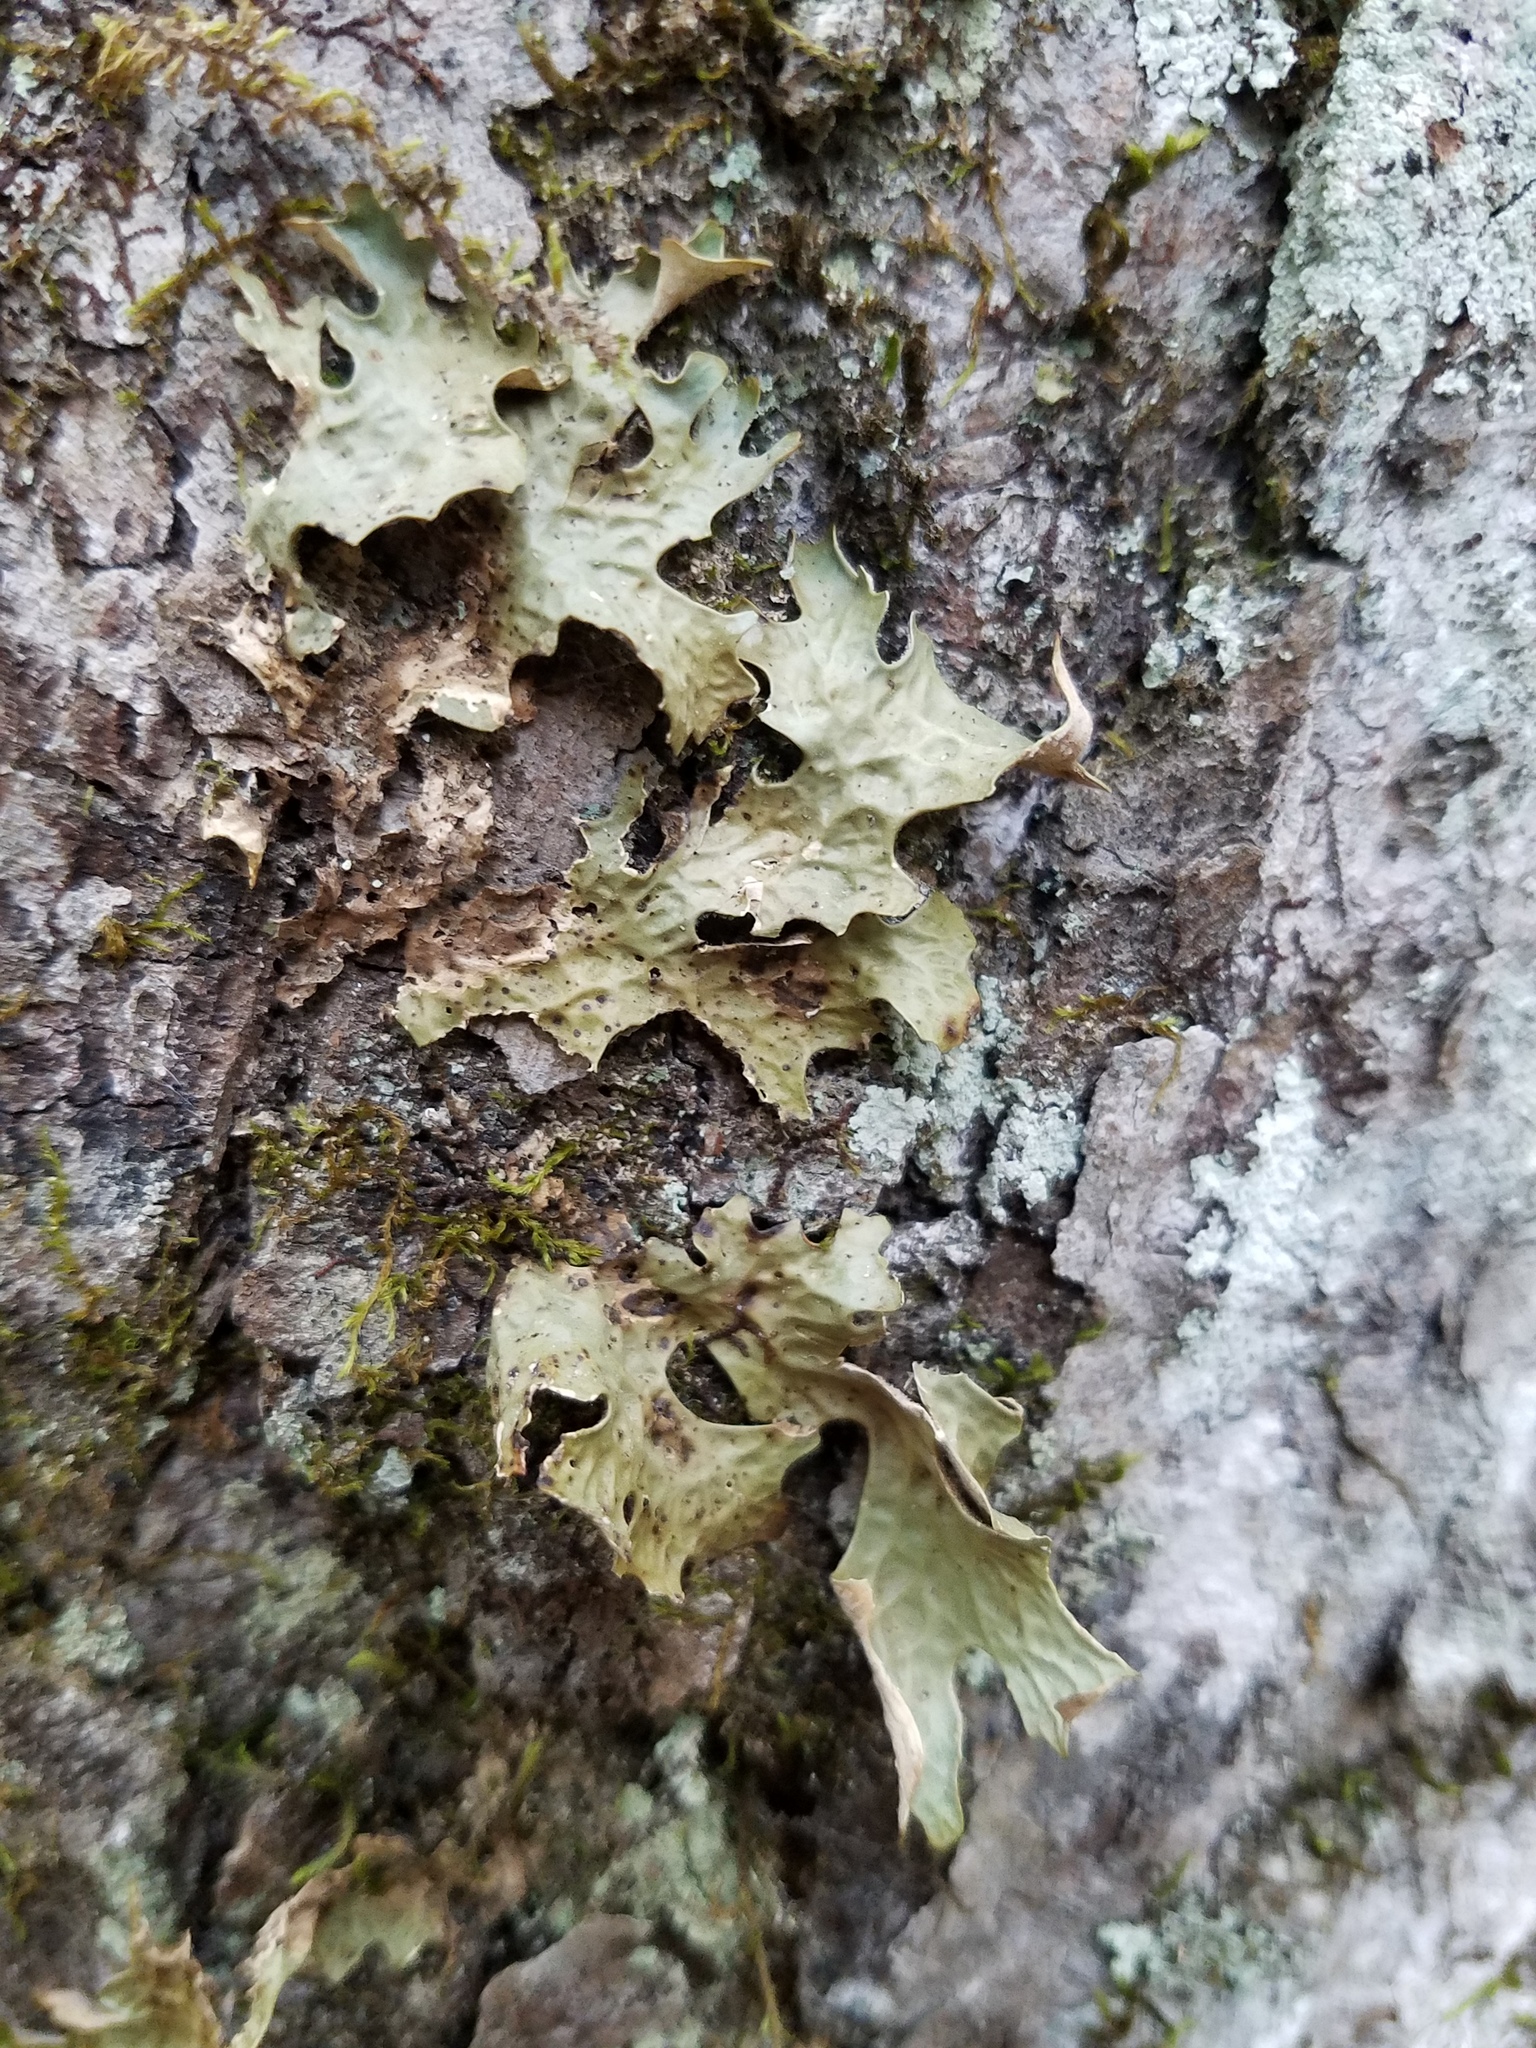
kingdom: Fungi
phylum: Ascomycota
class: Lecanoromycetes
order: Peltigerales
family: Lobariaceae
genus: Lobaria
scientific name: Lobaria pulmonaria
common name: Lungwort
